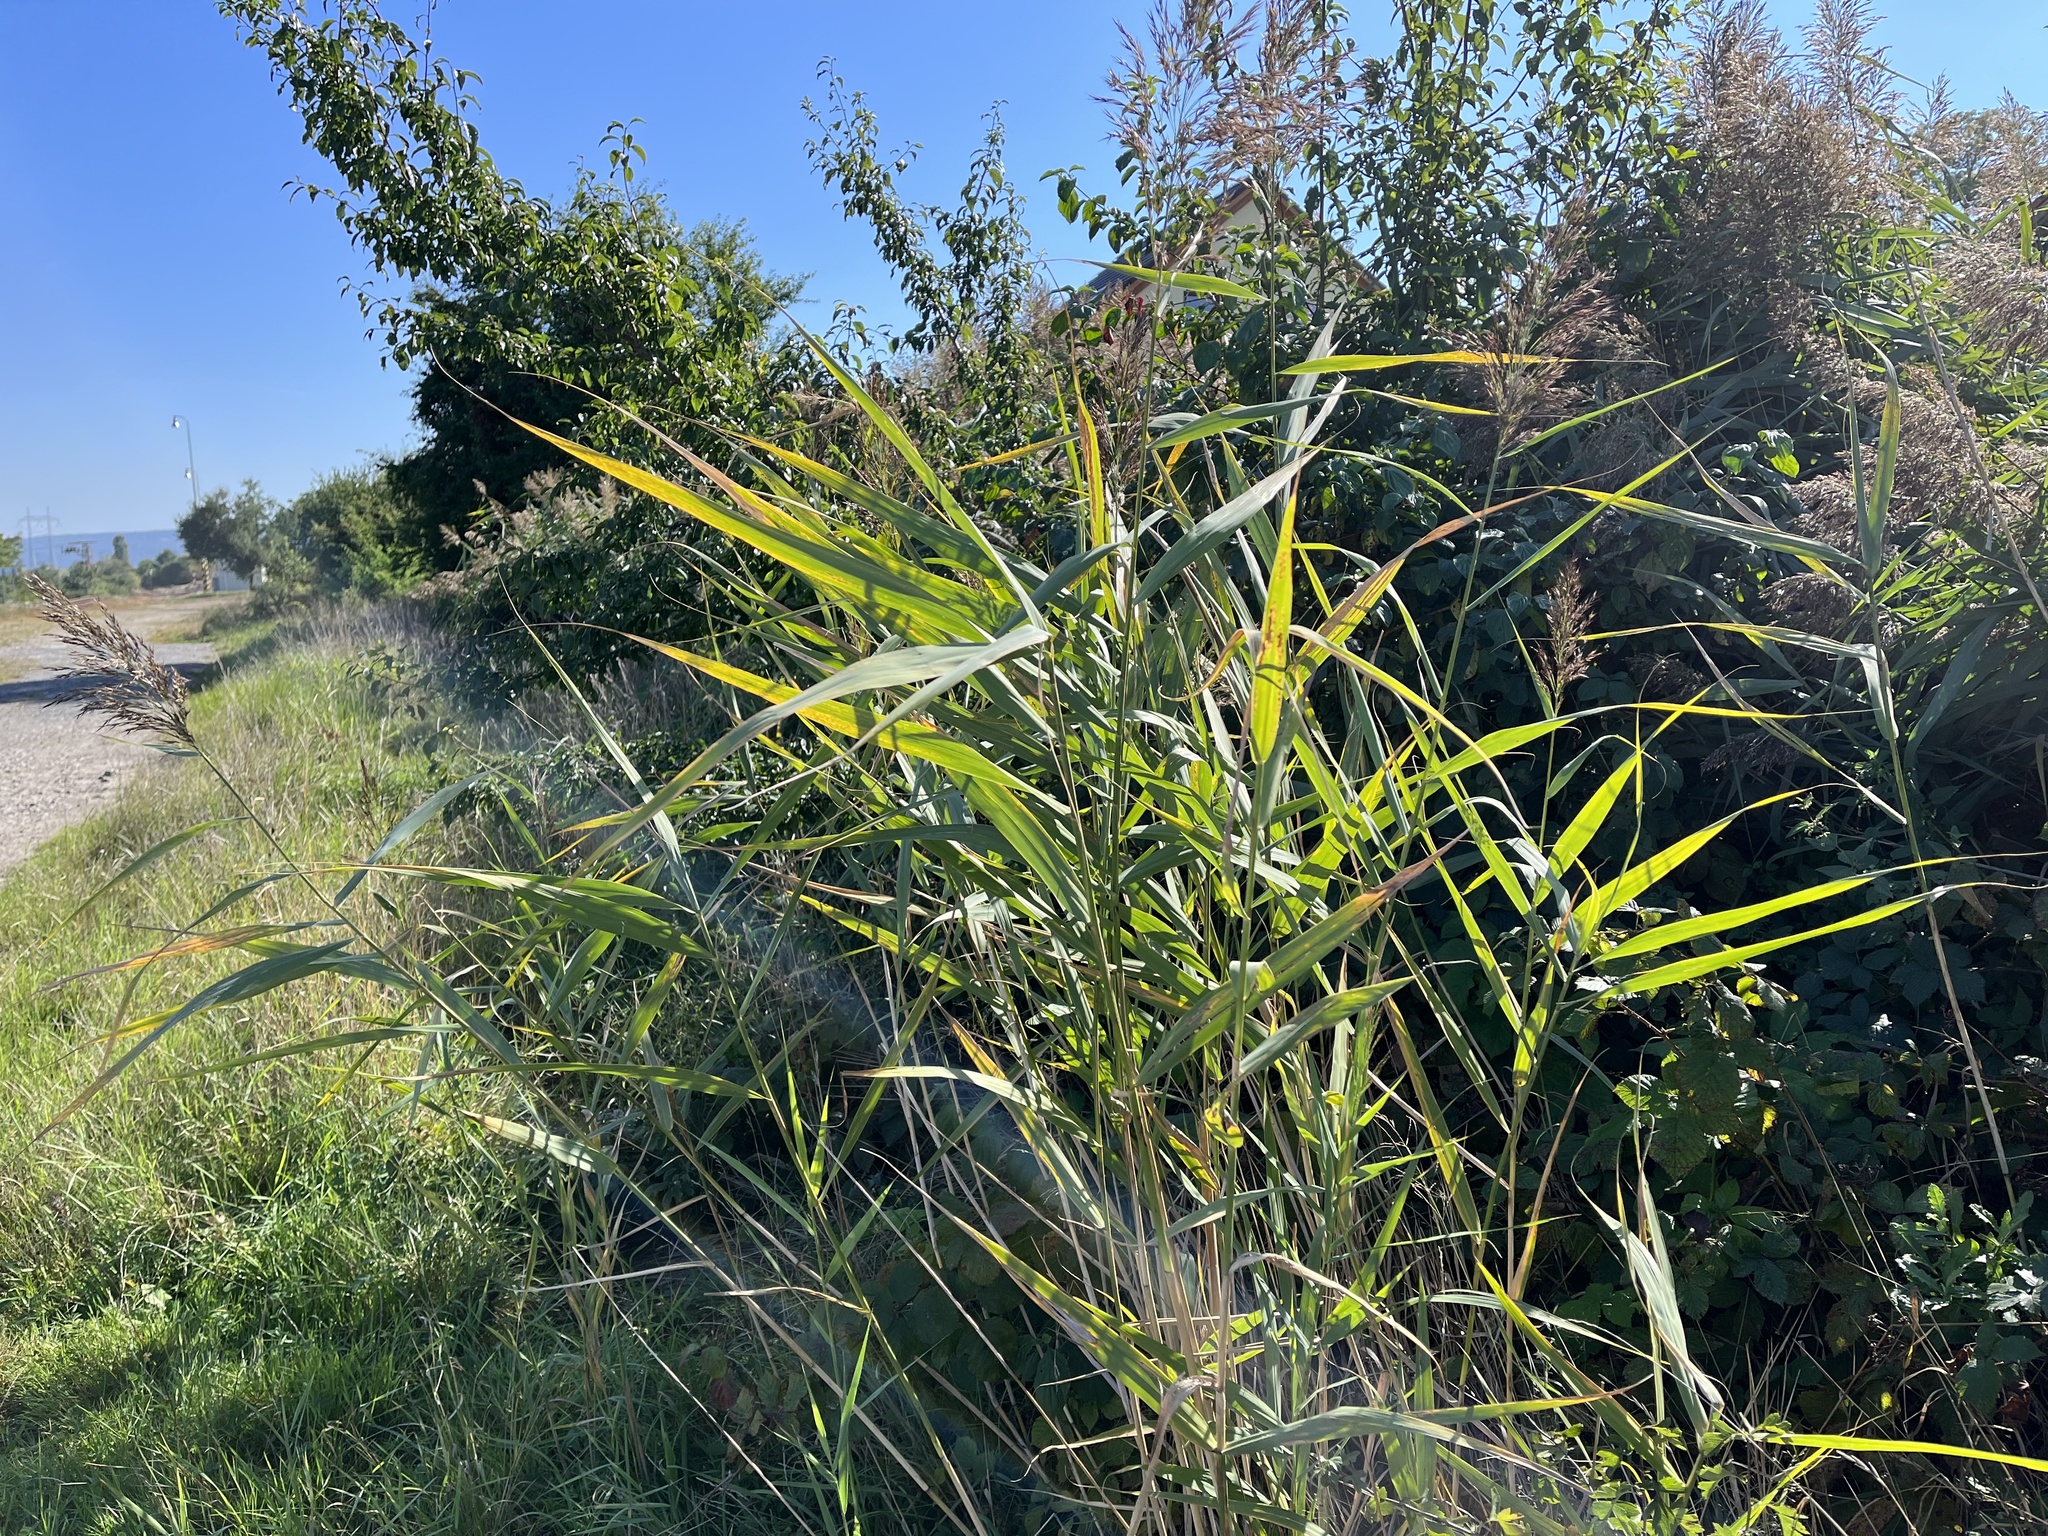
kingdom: Plantae
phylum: Tracheophyta
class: Liliopsida
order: Poales
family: Poaceae
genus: Phragmites
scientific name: Phragmites australis
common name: Common reed
